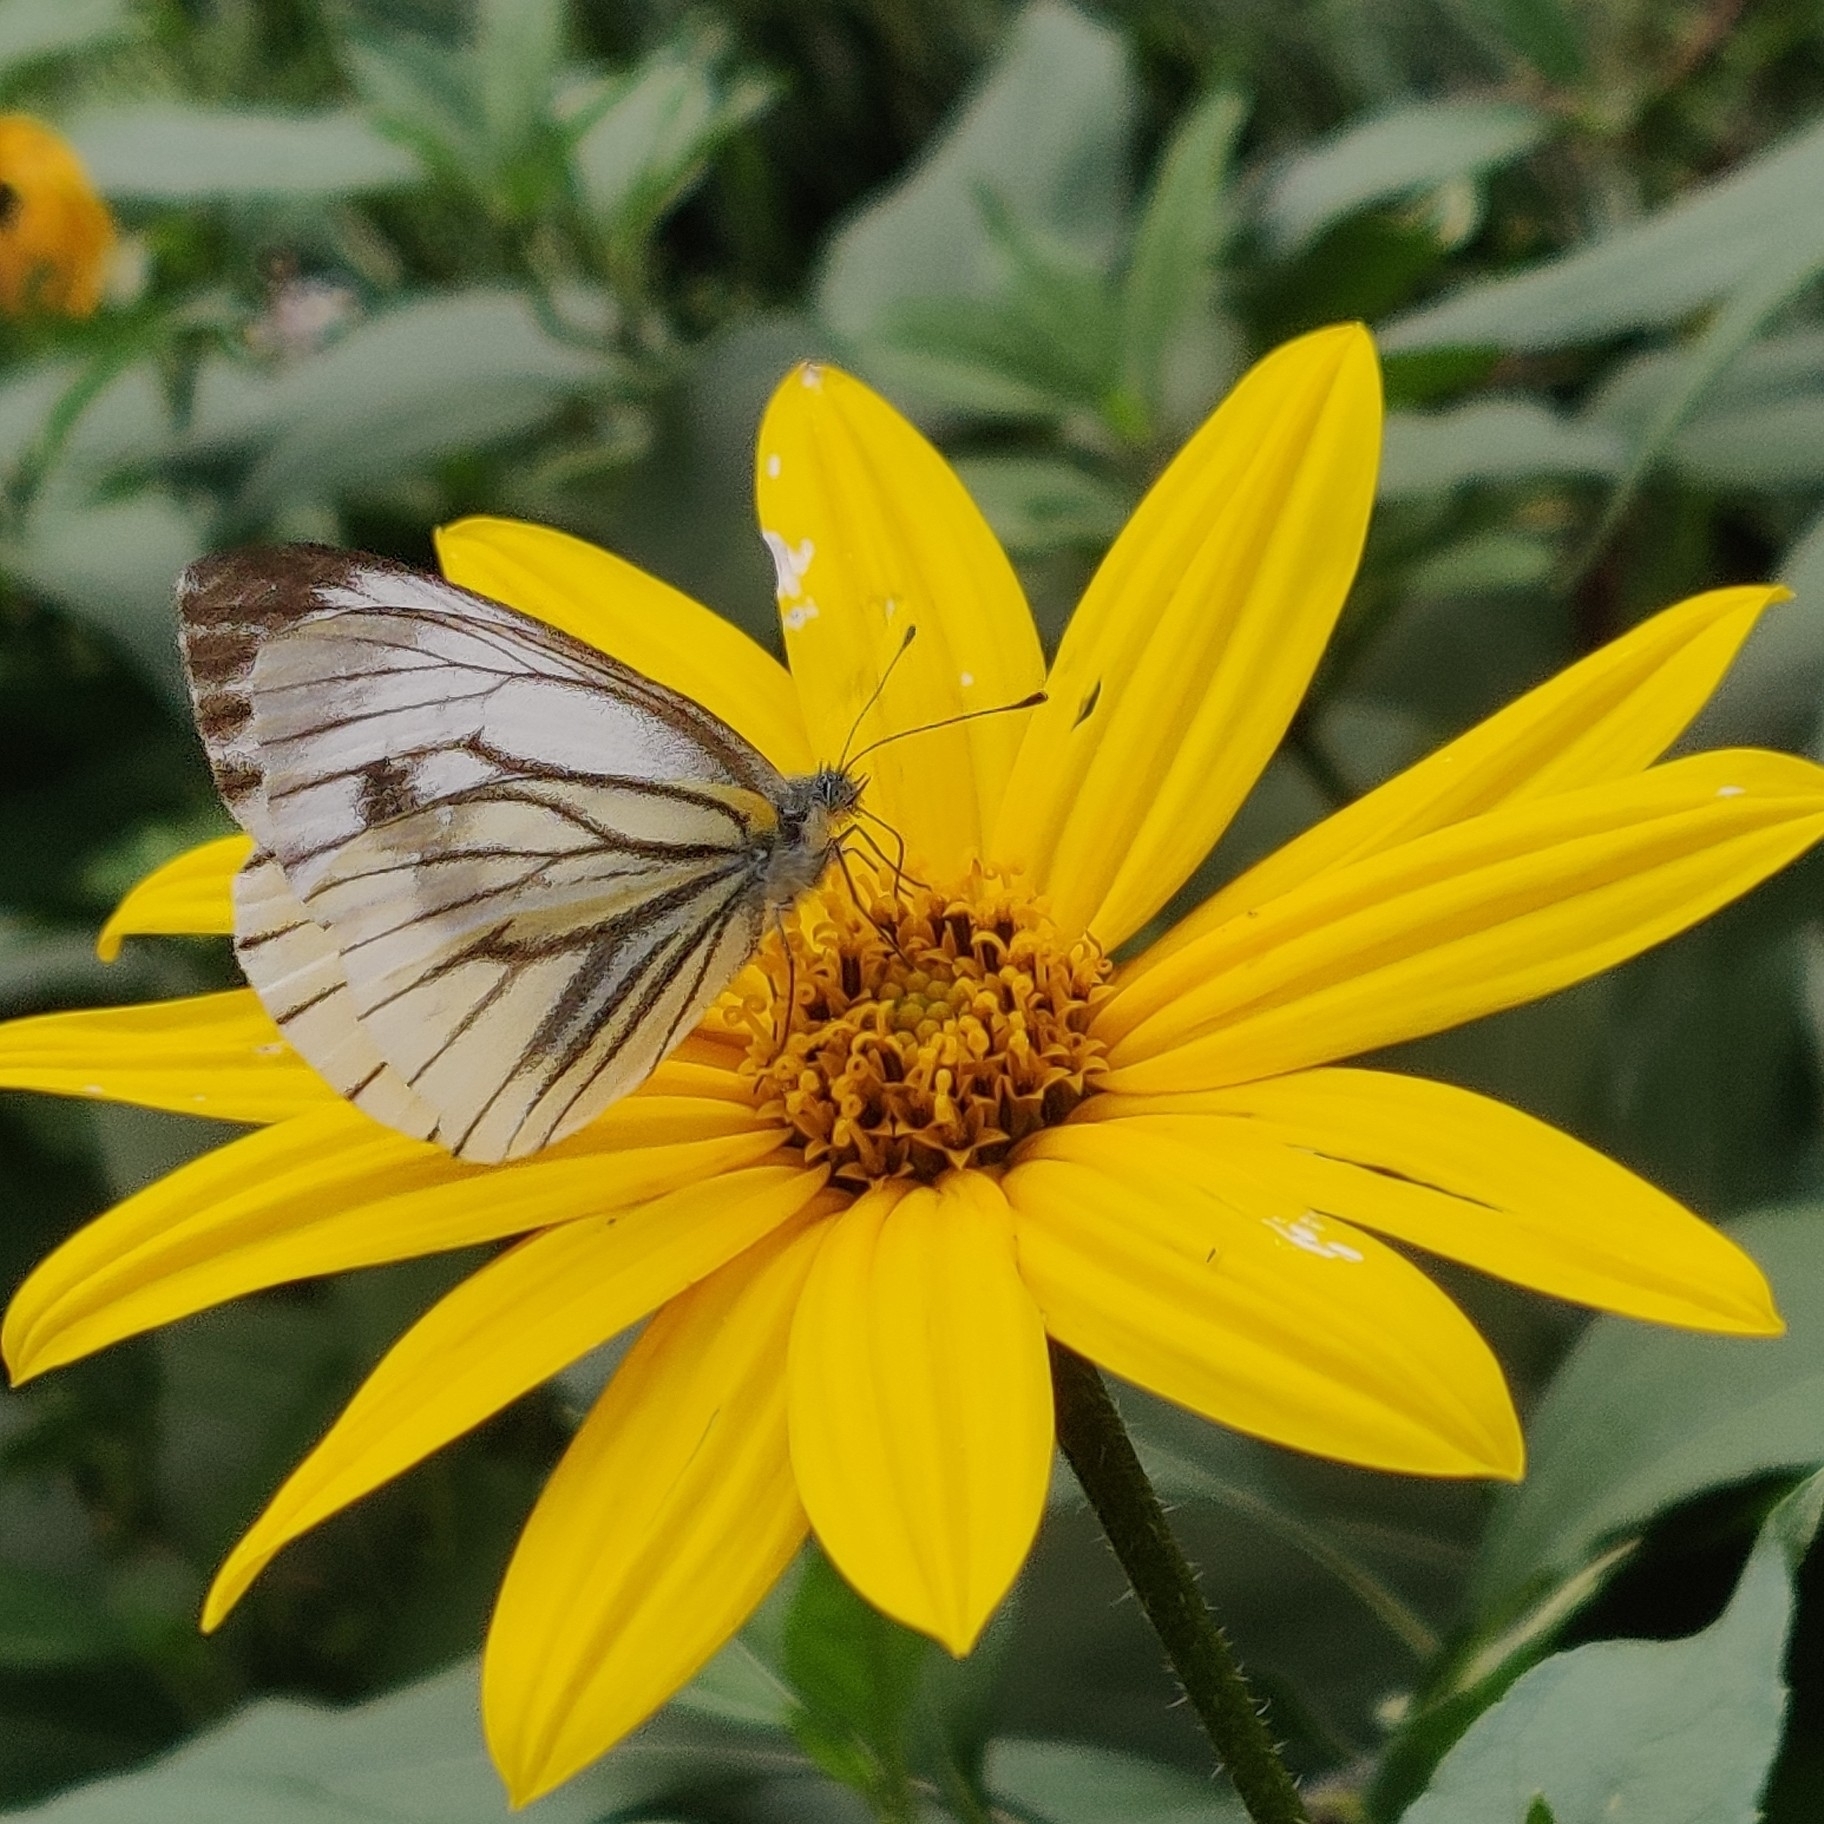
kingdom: Animalia
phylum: Arthropoda
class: Insecta
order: Lepidoptera
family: Pieridae
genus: Pieris
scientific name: Pieris melete
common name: Asian green-veined white
